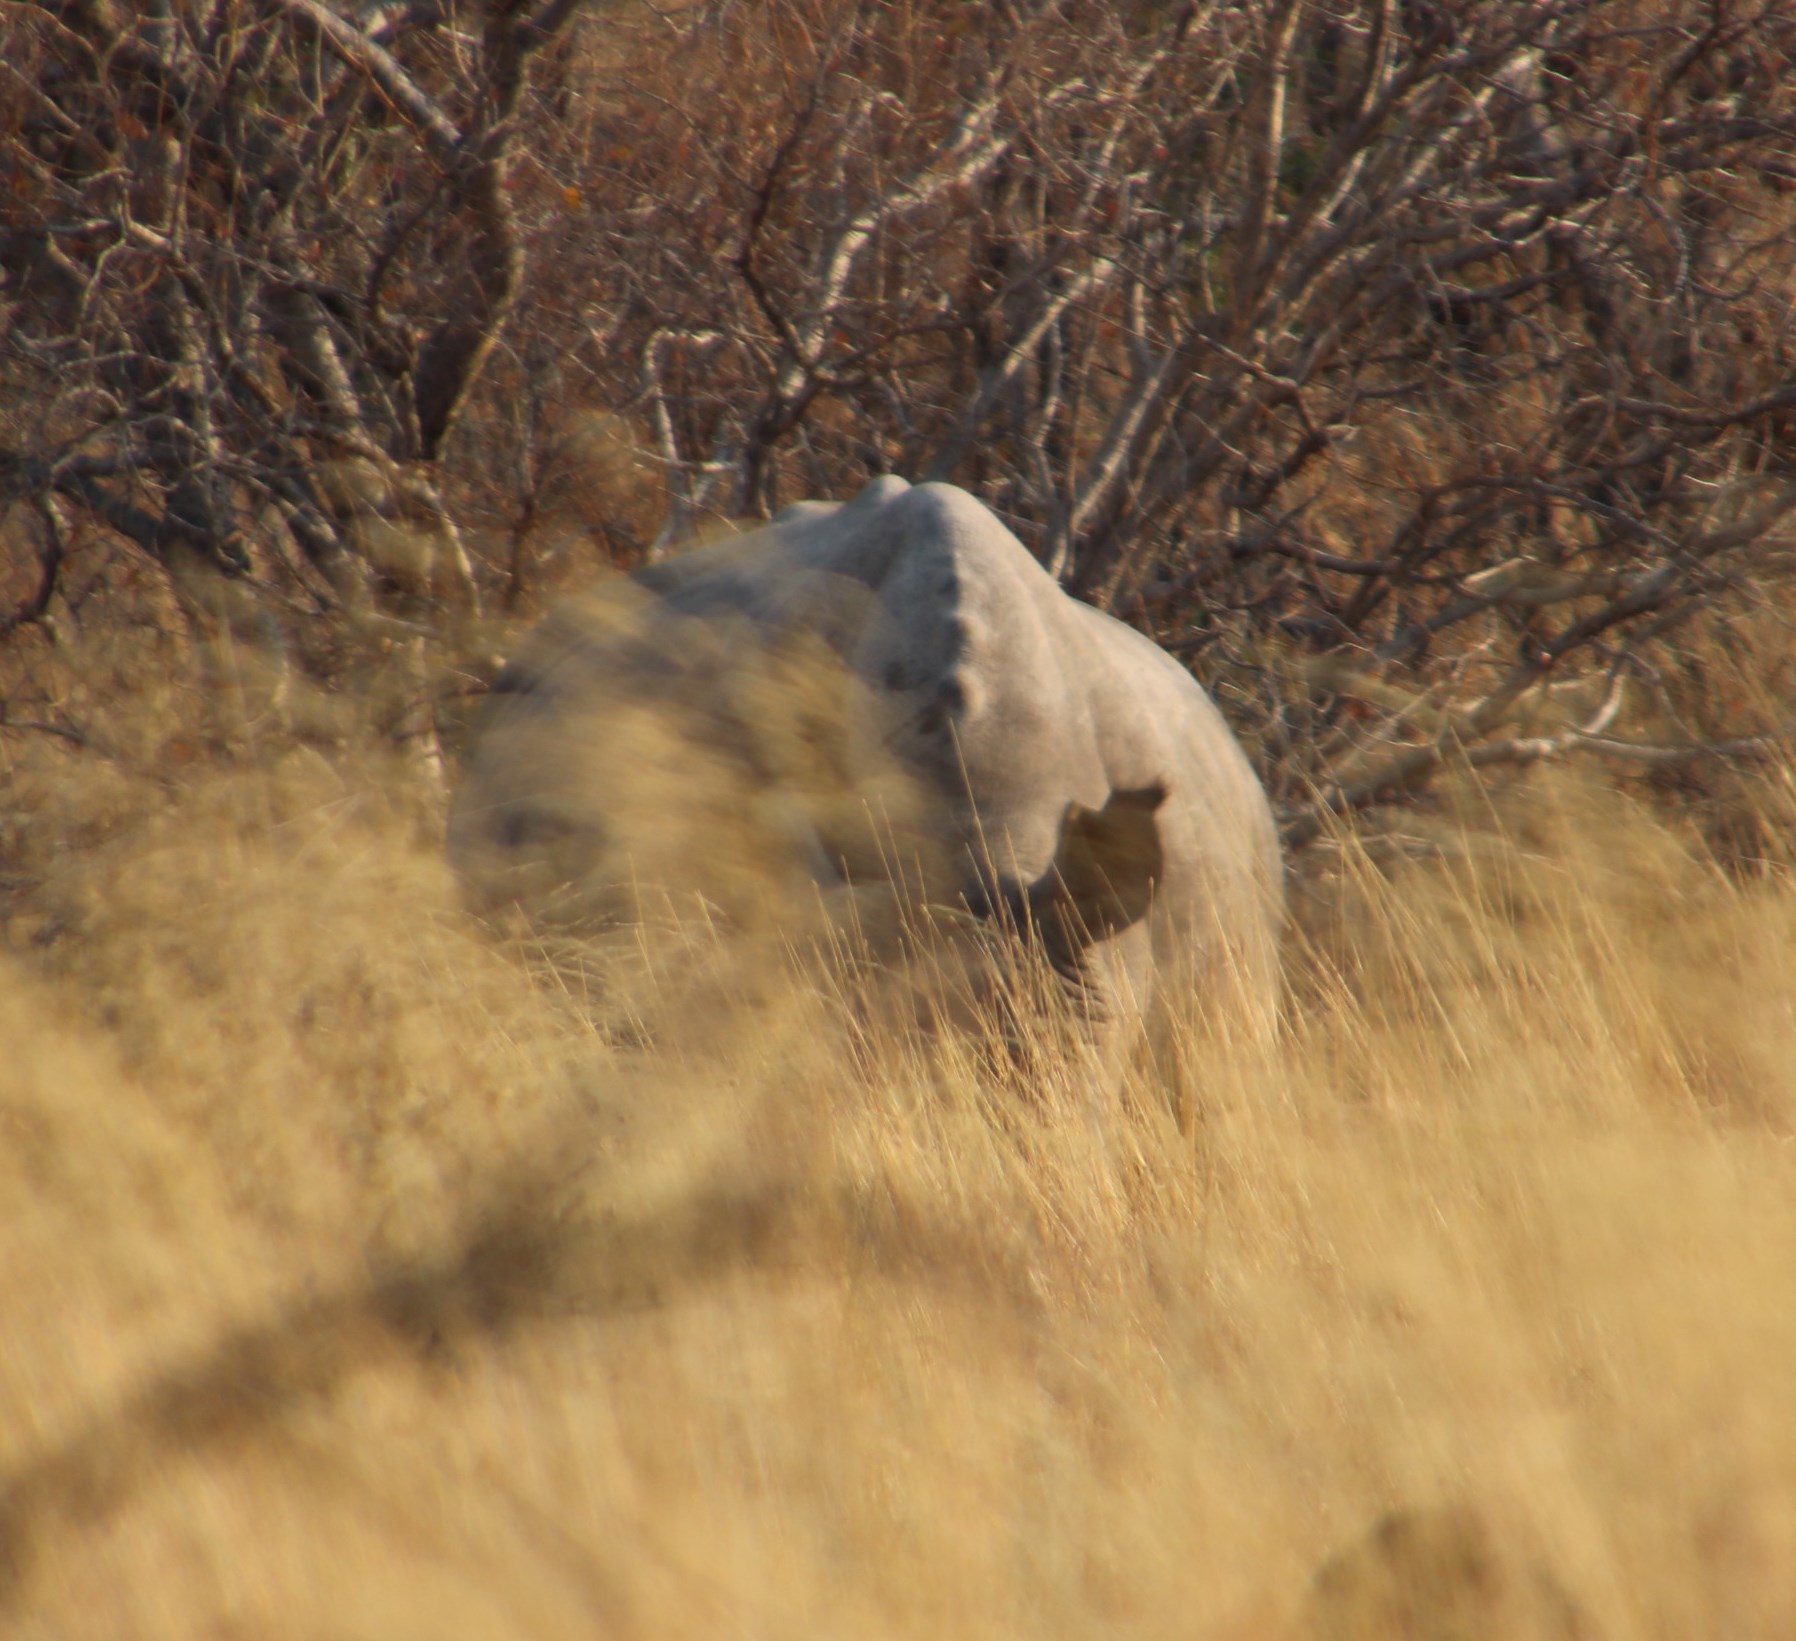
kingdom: Animalia
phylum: Chordata
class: Mammalia
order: Perissodactyla
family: Rhinocerotidae
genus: Ceratotherium
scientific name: Ceratotherium simum
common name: White rhinoceros
